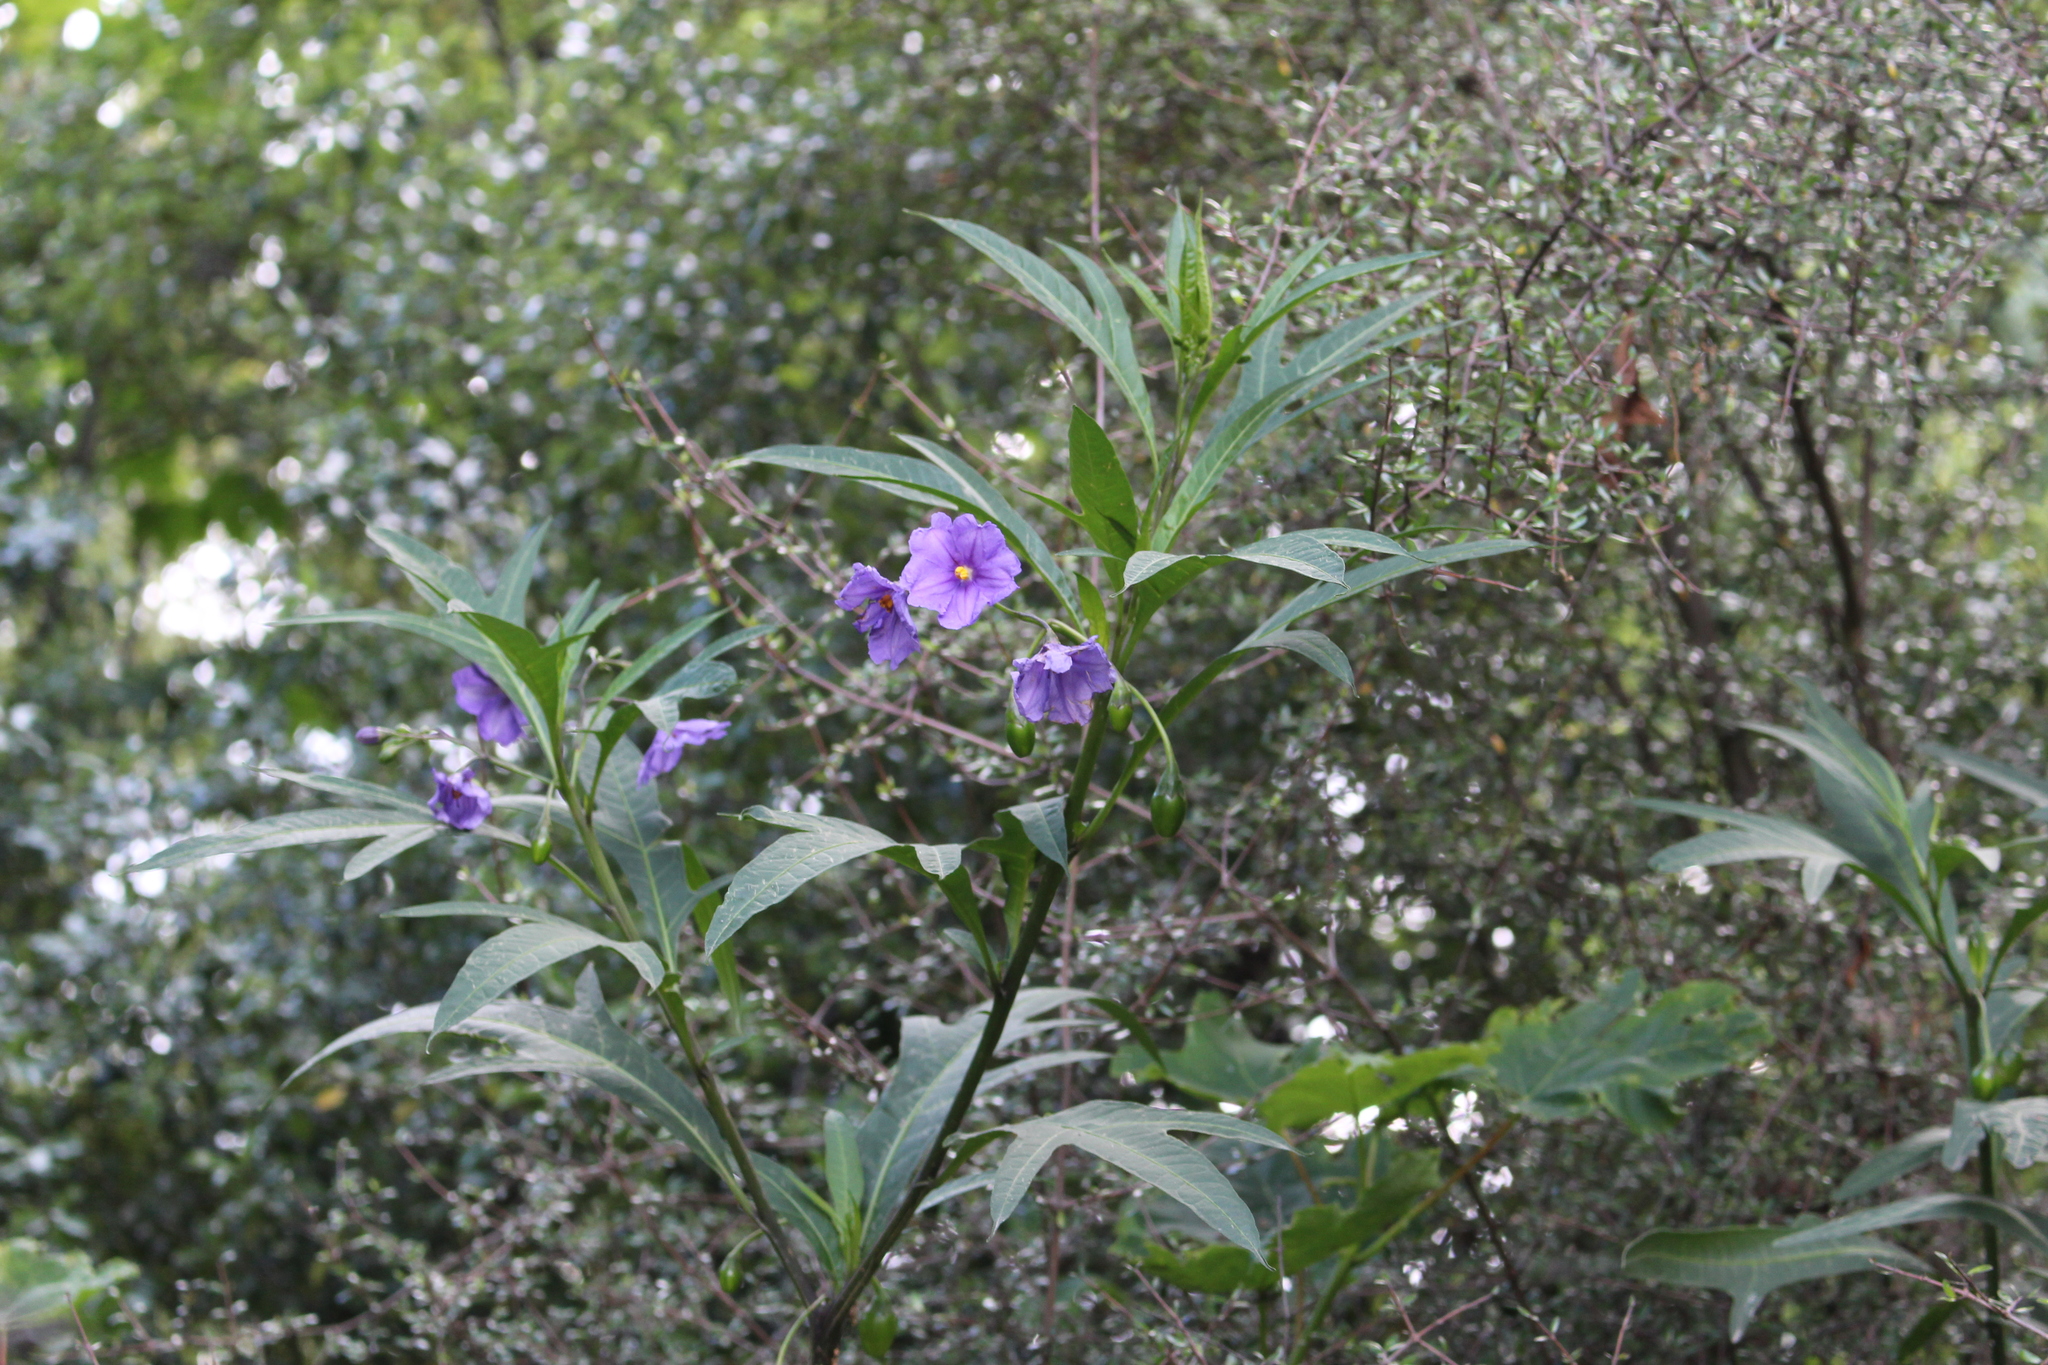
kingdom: Plantae
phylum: Tracheophyta
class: Magnoliopsida
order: Solanales
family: Solanaceae
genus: Solanum
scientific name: Solanum laciniatum
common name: Kangaroo-apple
